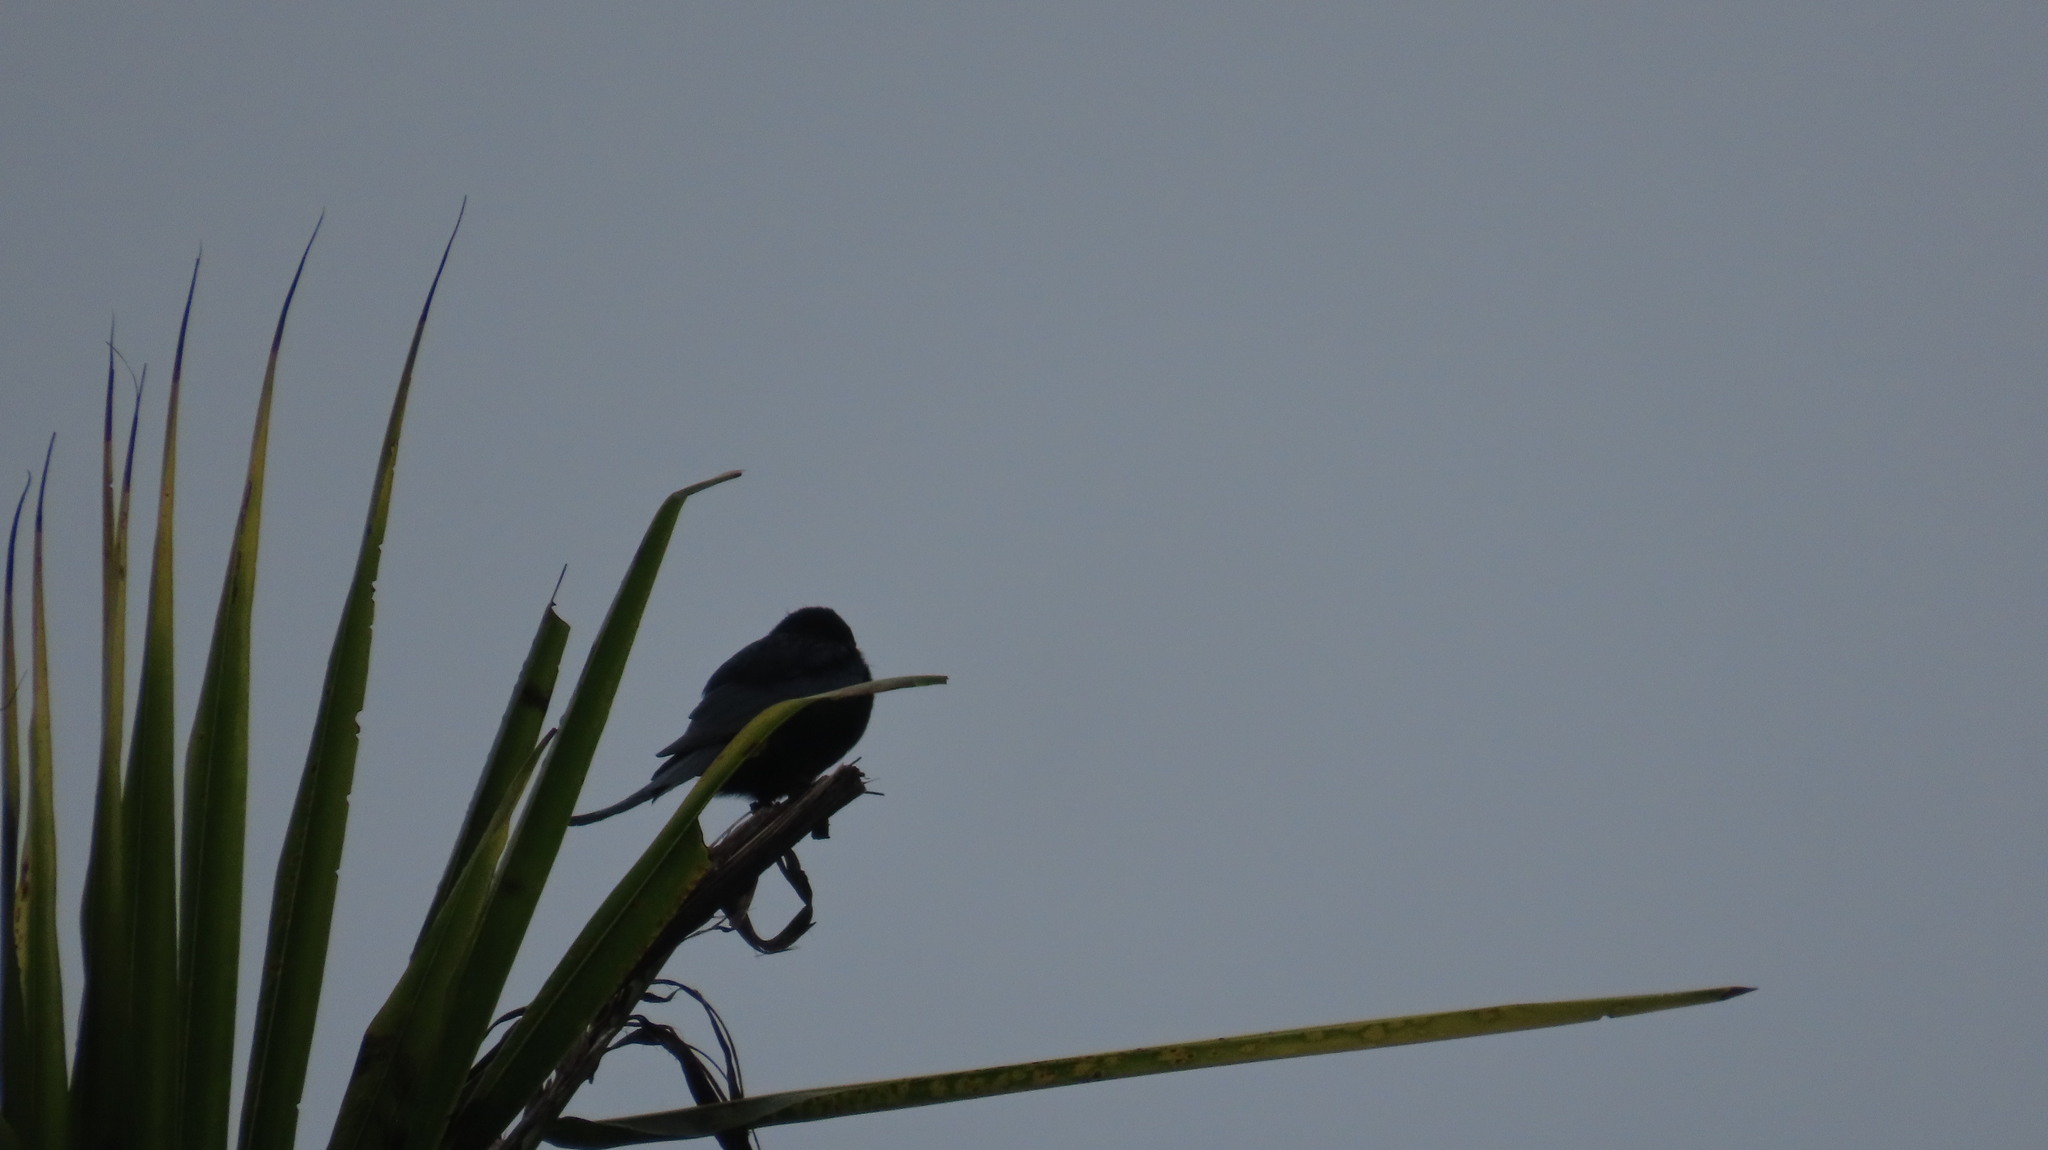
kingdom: Animalia
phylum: Chordata
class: Aves
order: Passeriformes
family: Dicruridae
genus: Dicrurus
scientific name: Dicrurus macrocercus
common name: Black drongo
